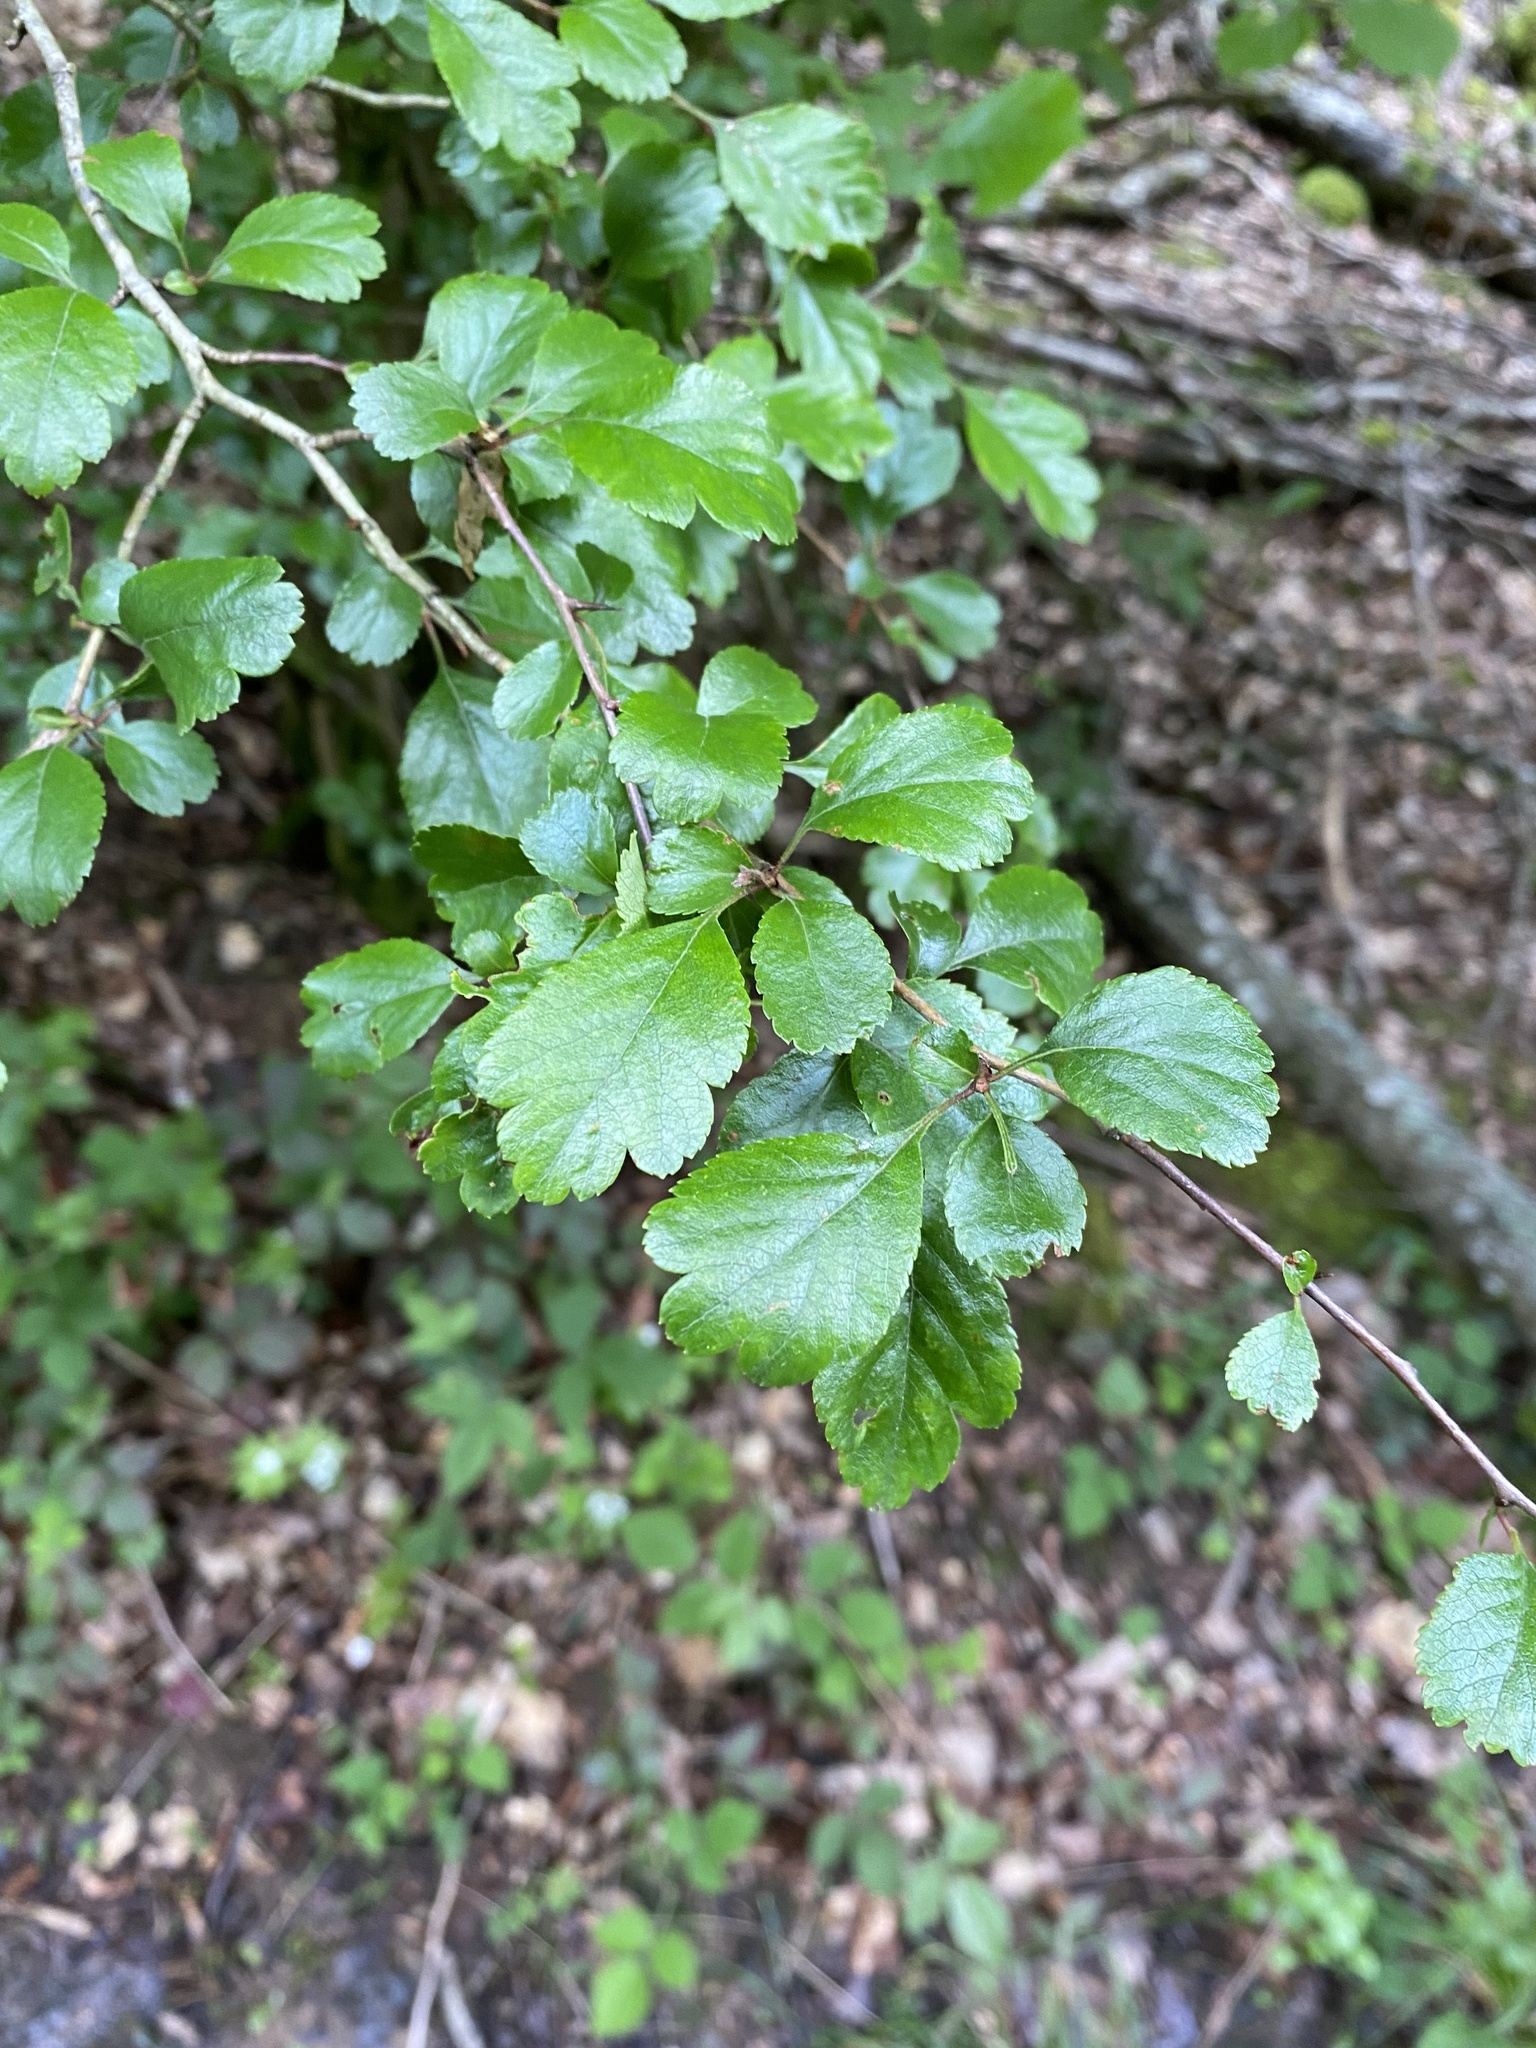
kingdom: Plantae
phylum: Tracheophyta
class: Magnoliopsida
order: Rosales
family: Rosaceae
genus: Crataegus
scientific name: Crataegus laevigata
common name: Midland hawthorn
